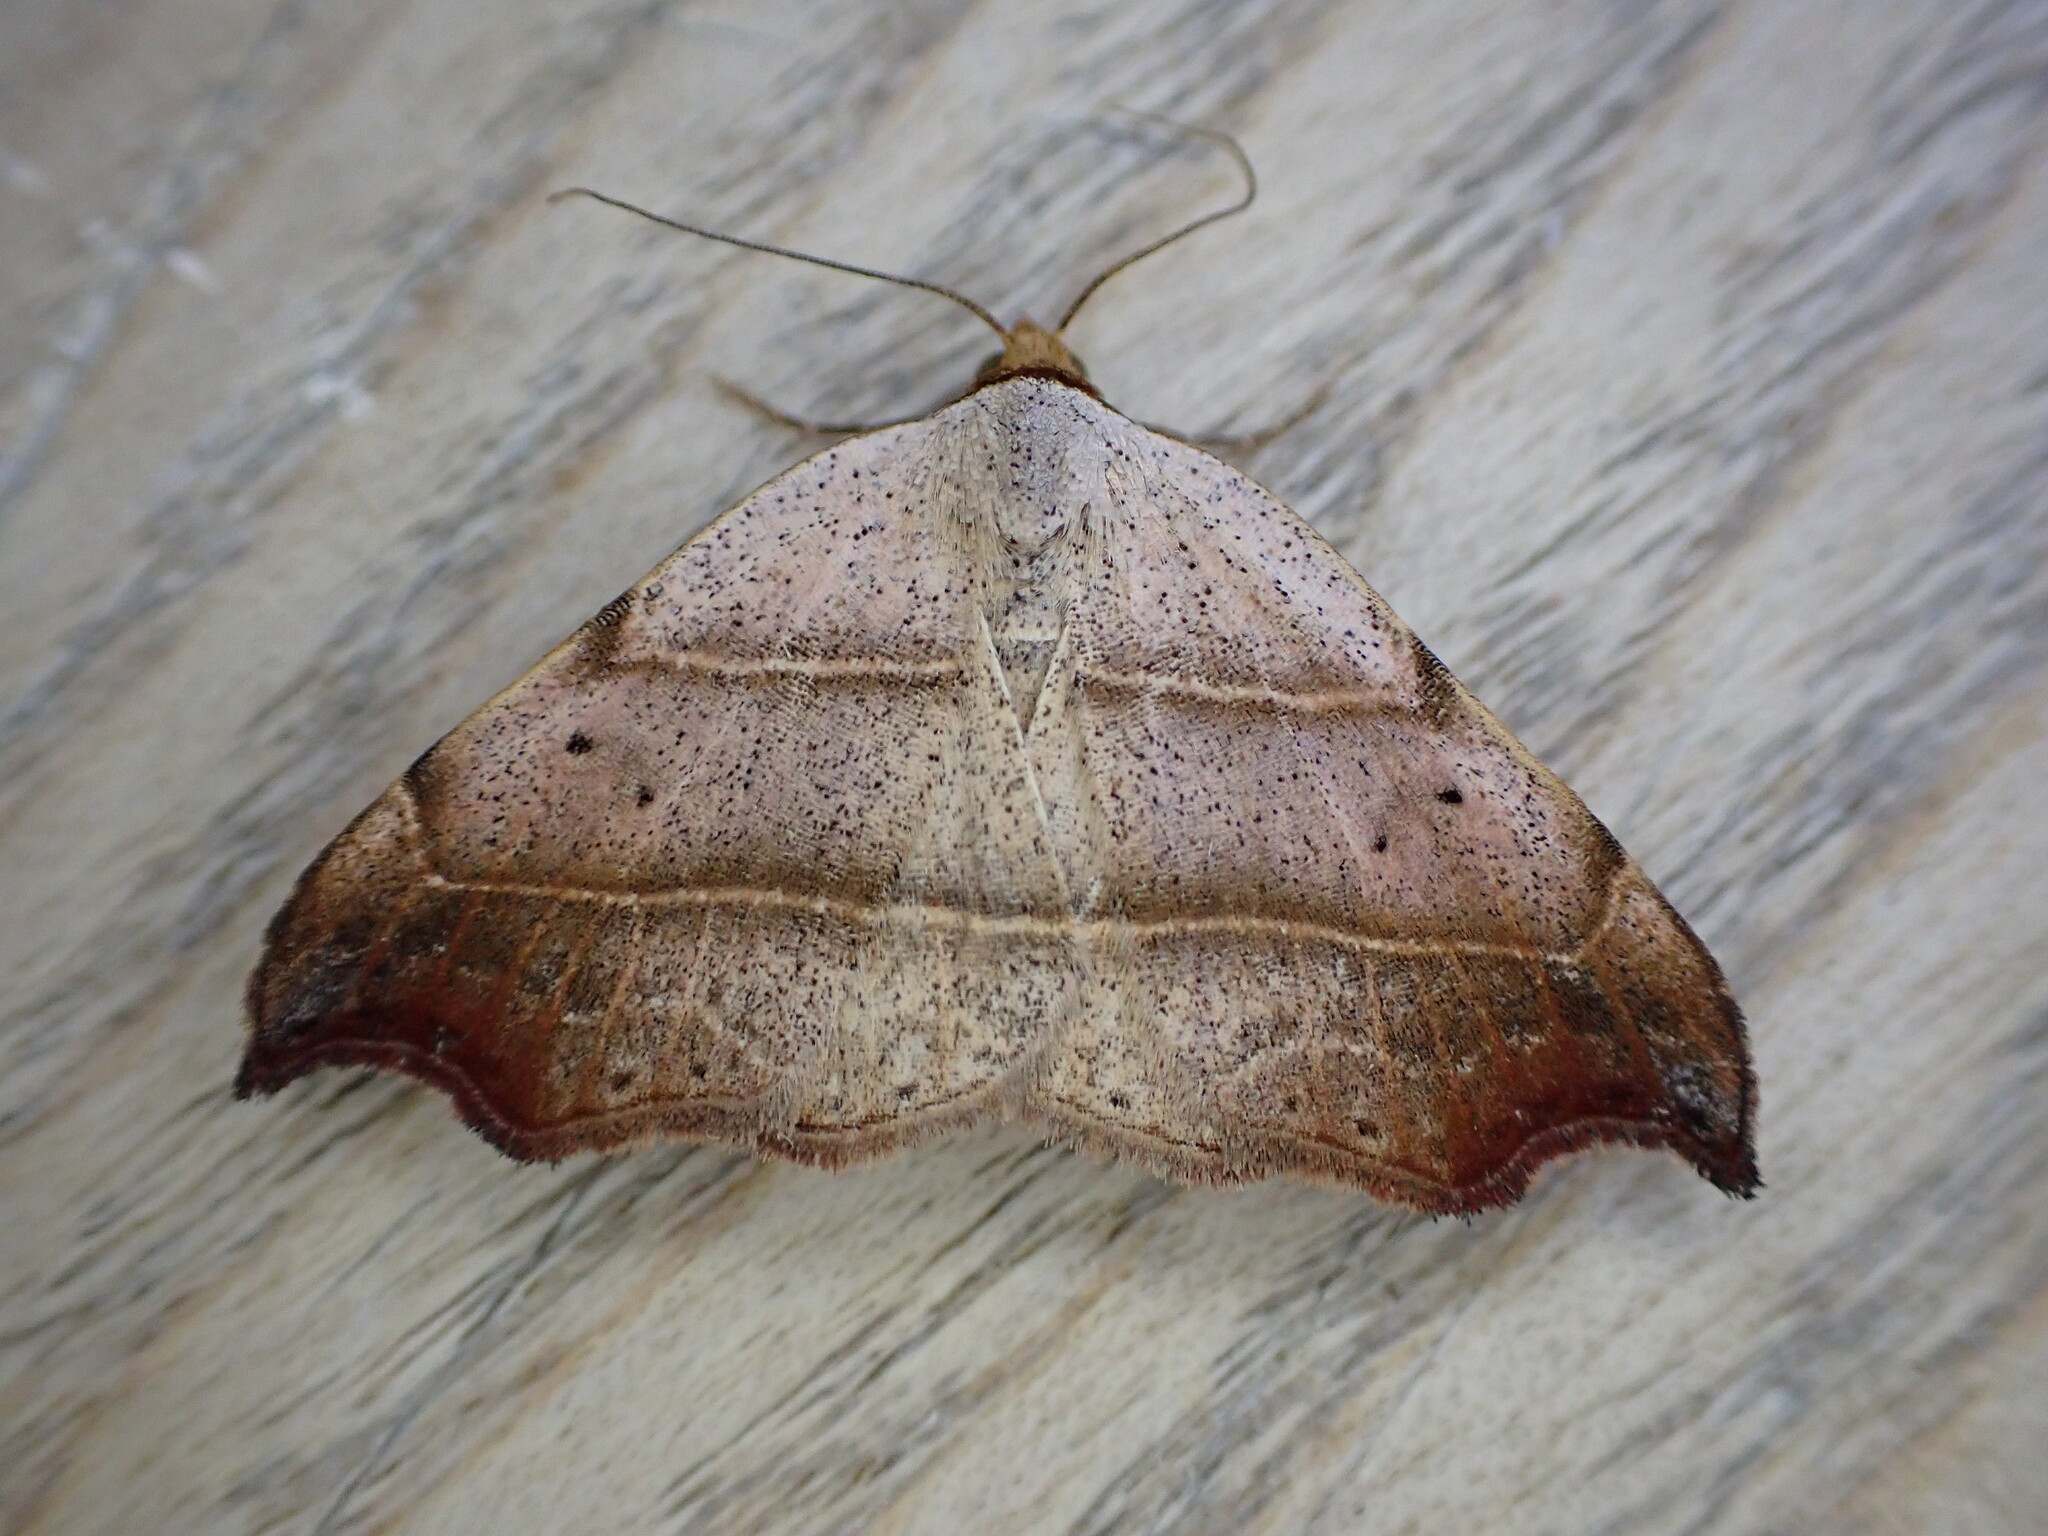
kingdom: Animalia
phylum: Arthropoda
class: Insecta
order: Lepidoptera
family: Erebidae
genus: Laspeyria
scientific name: Laspeyria flexula
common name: Beautiful hook-tip
